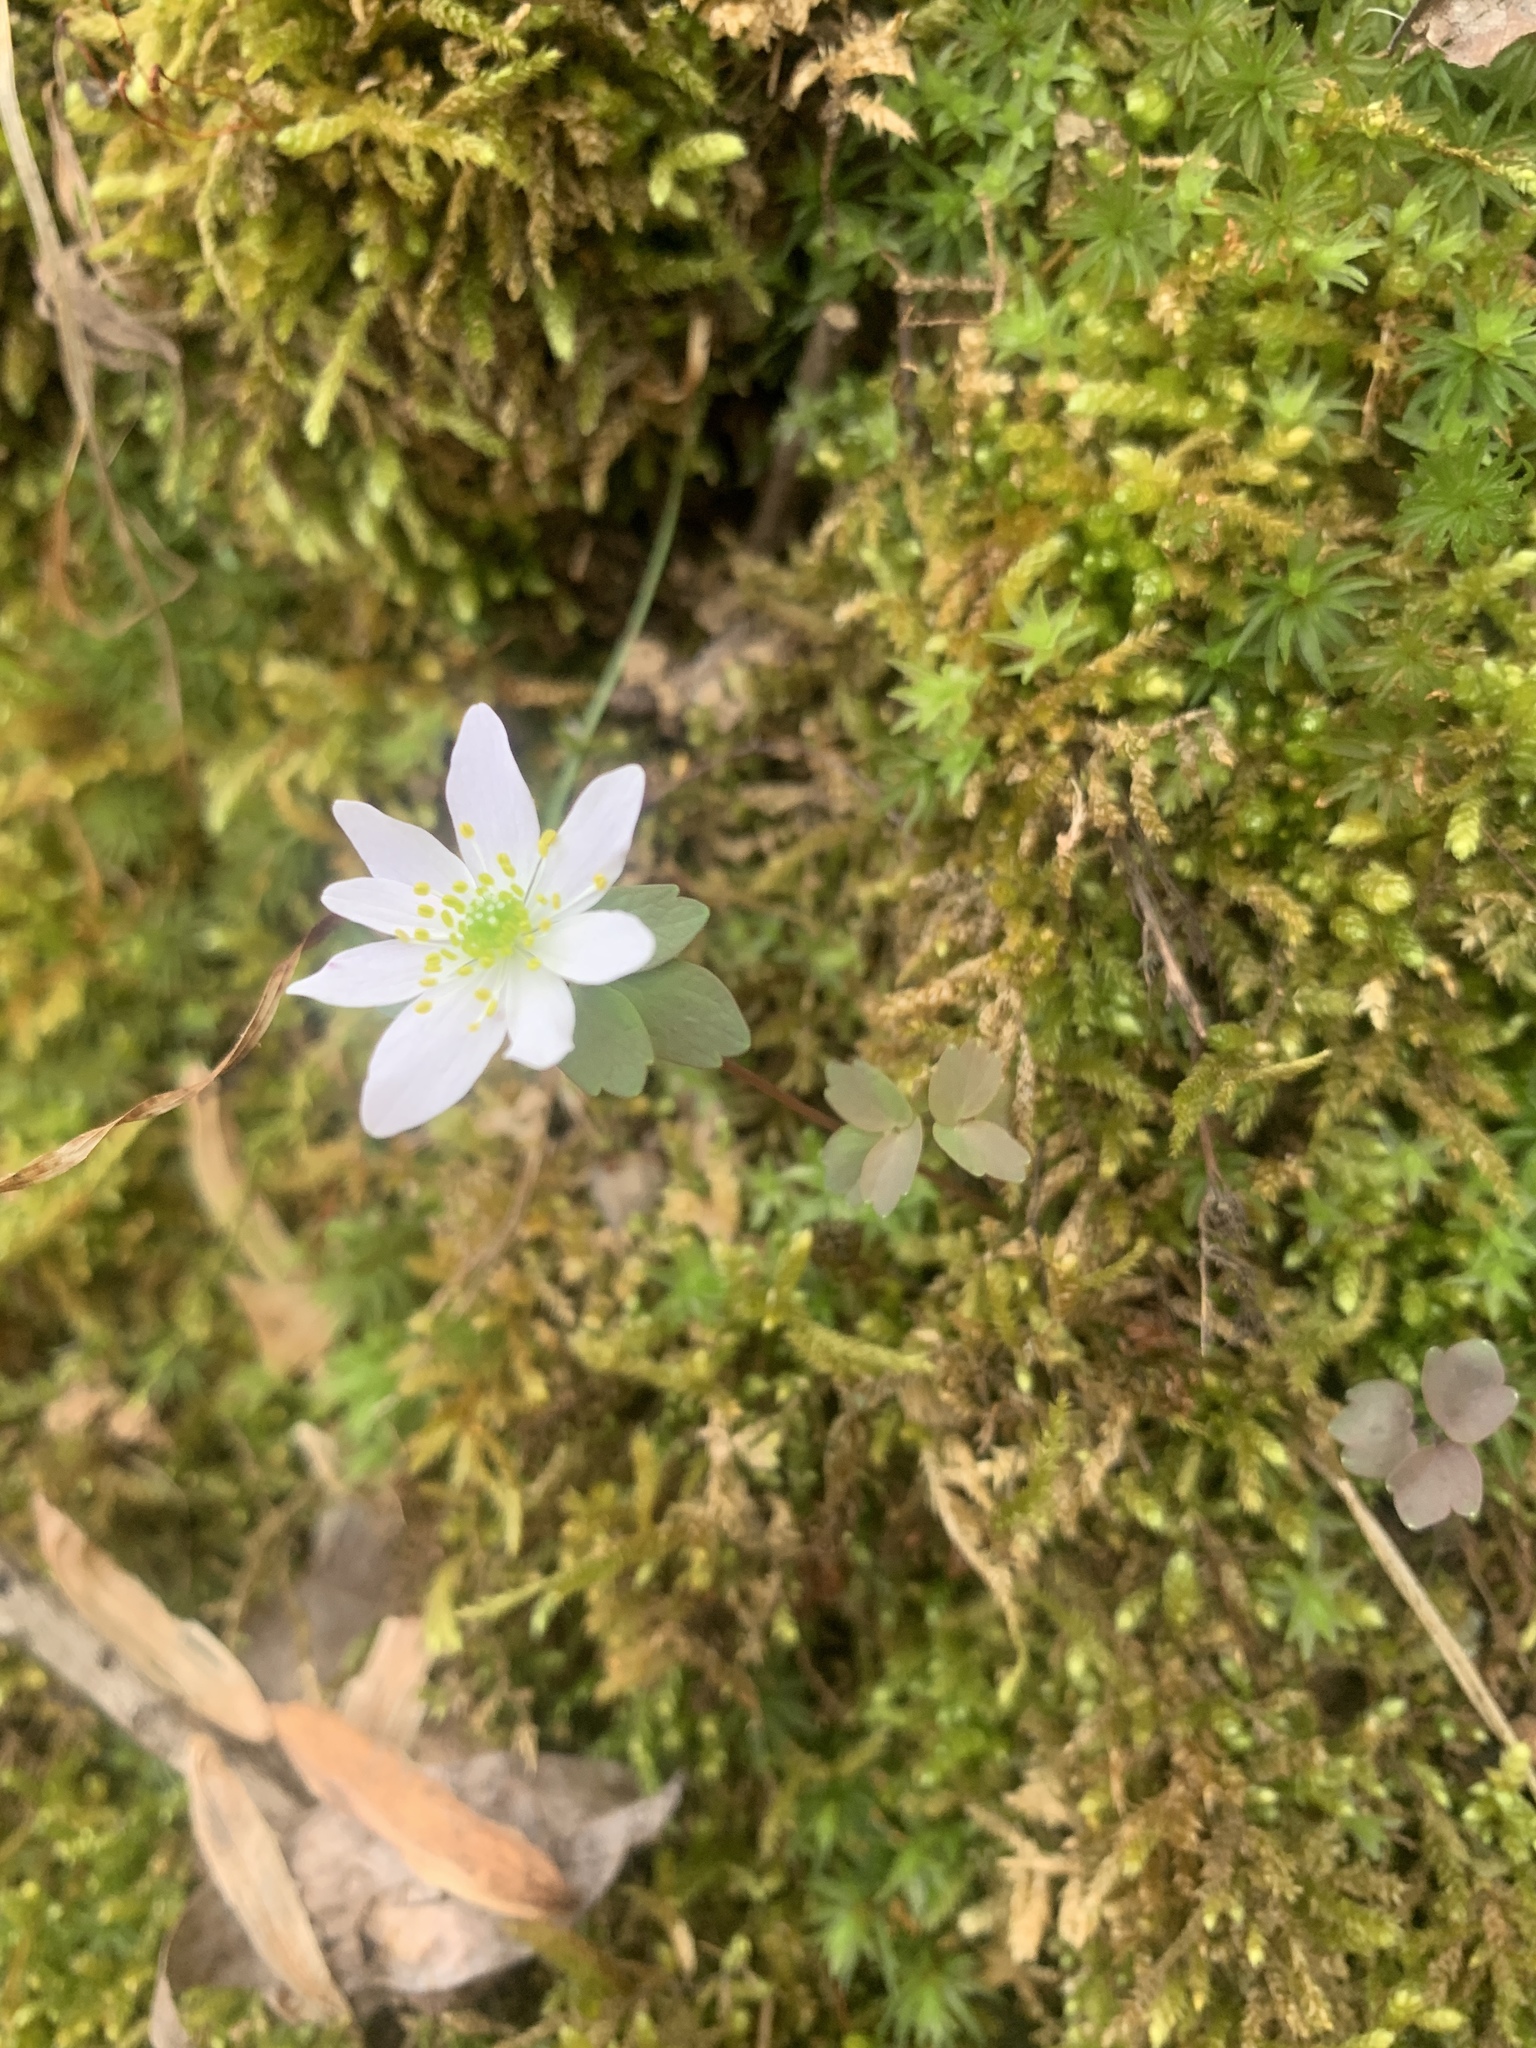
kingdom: Plantae
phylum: Tracheophyta
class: Magnoliopsida
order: Ranunculales
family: Ranunculaceae
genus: Thalictrum
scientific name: Thalictrum thalictroides
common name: Rue-anemone
